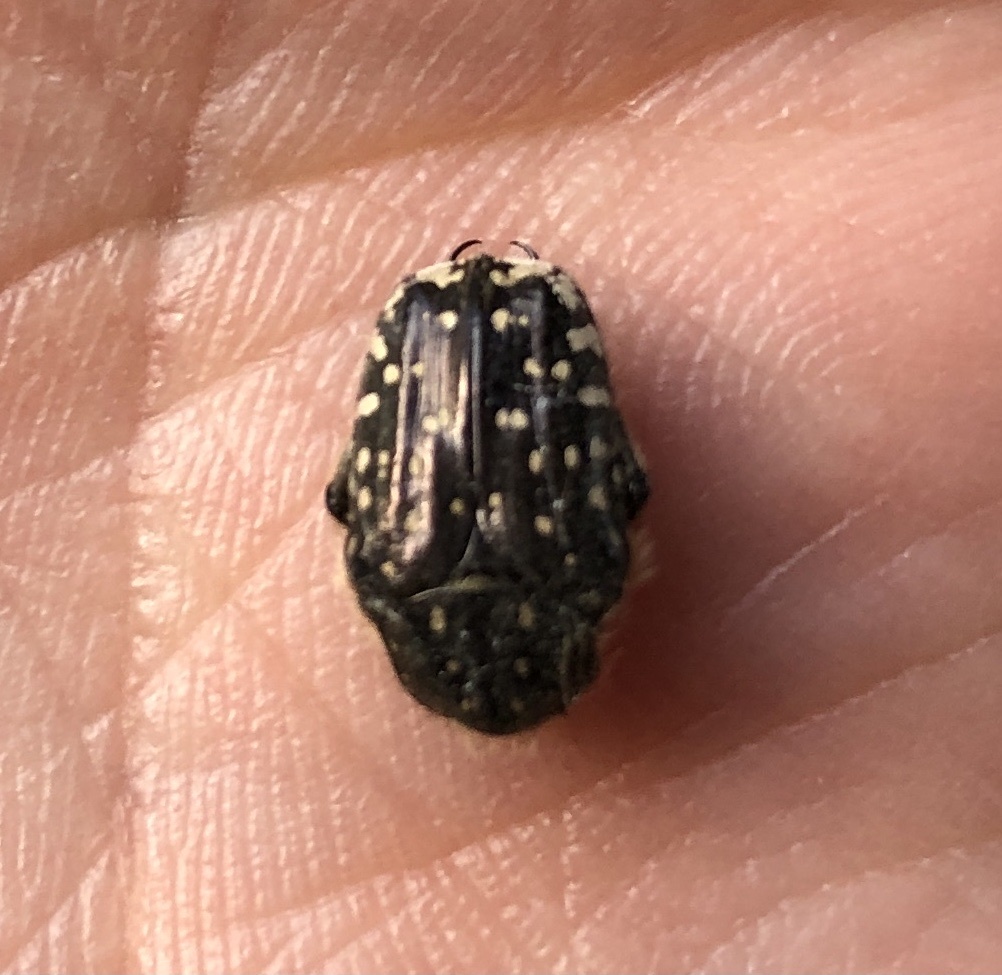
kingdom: Animalia
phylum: Arthropoda
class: Insecta
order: Coleoptera
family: Scarabaeidae
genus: Oxythyrea
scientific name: Oxythyrea funesta
